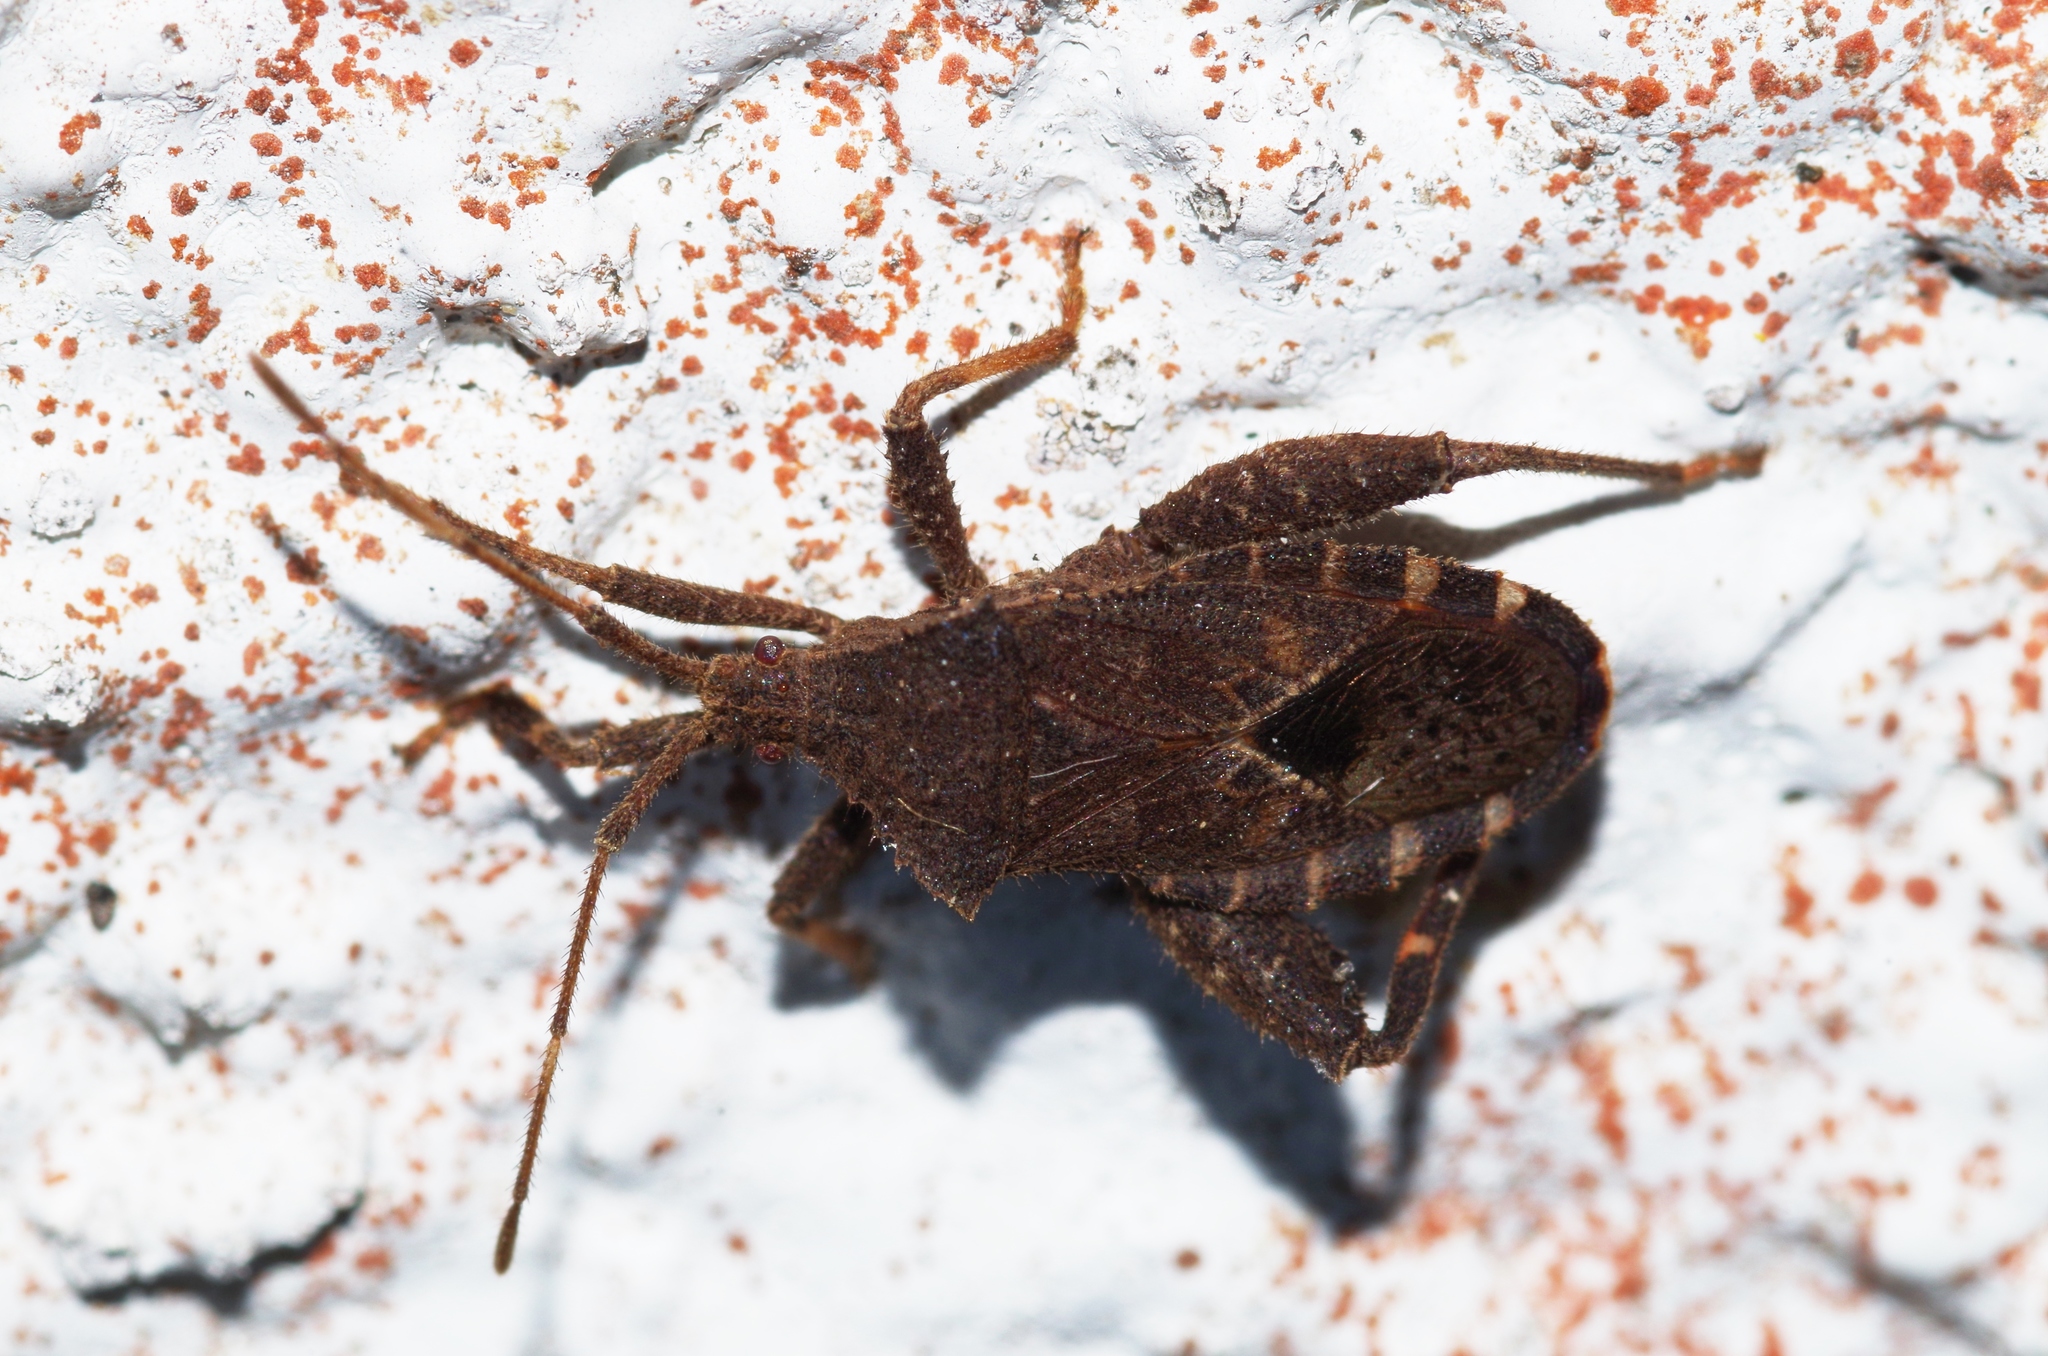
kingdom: Animalia
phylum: Arthropoda
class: Insecta
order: Hemiptera
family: Coreidae
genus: Acanthocoris
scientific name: Acanthocoris sordidus
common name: Winter cherry bug
